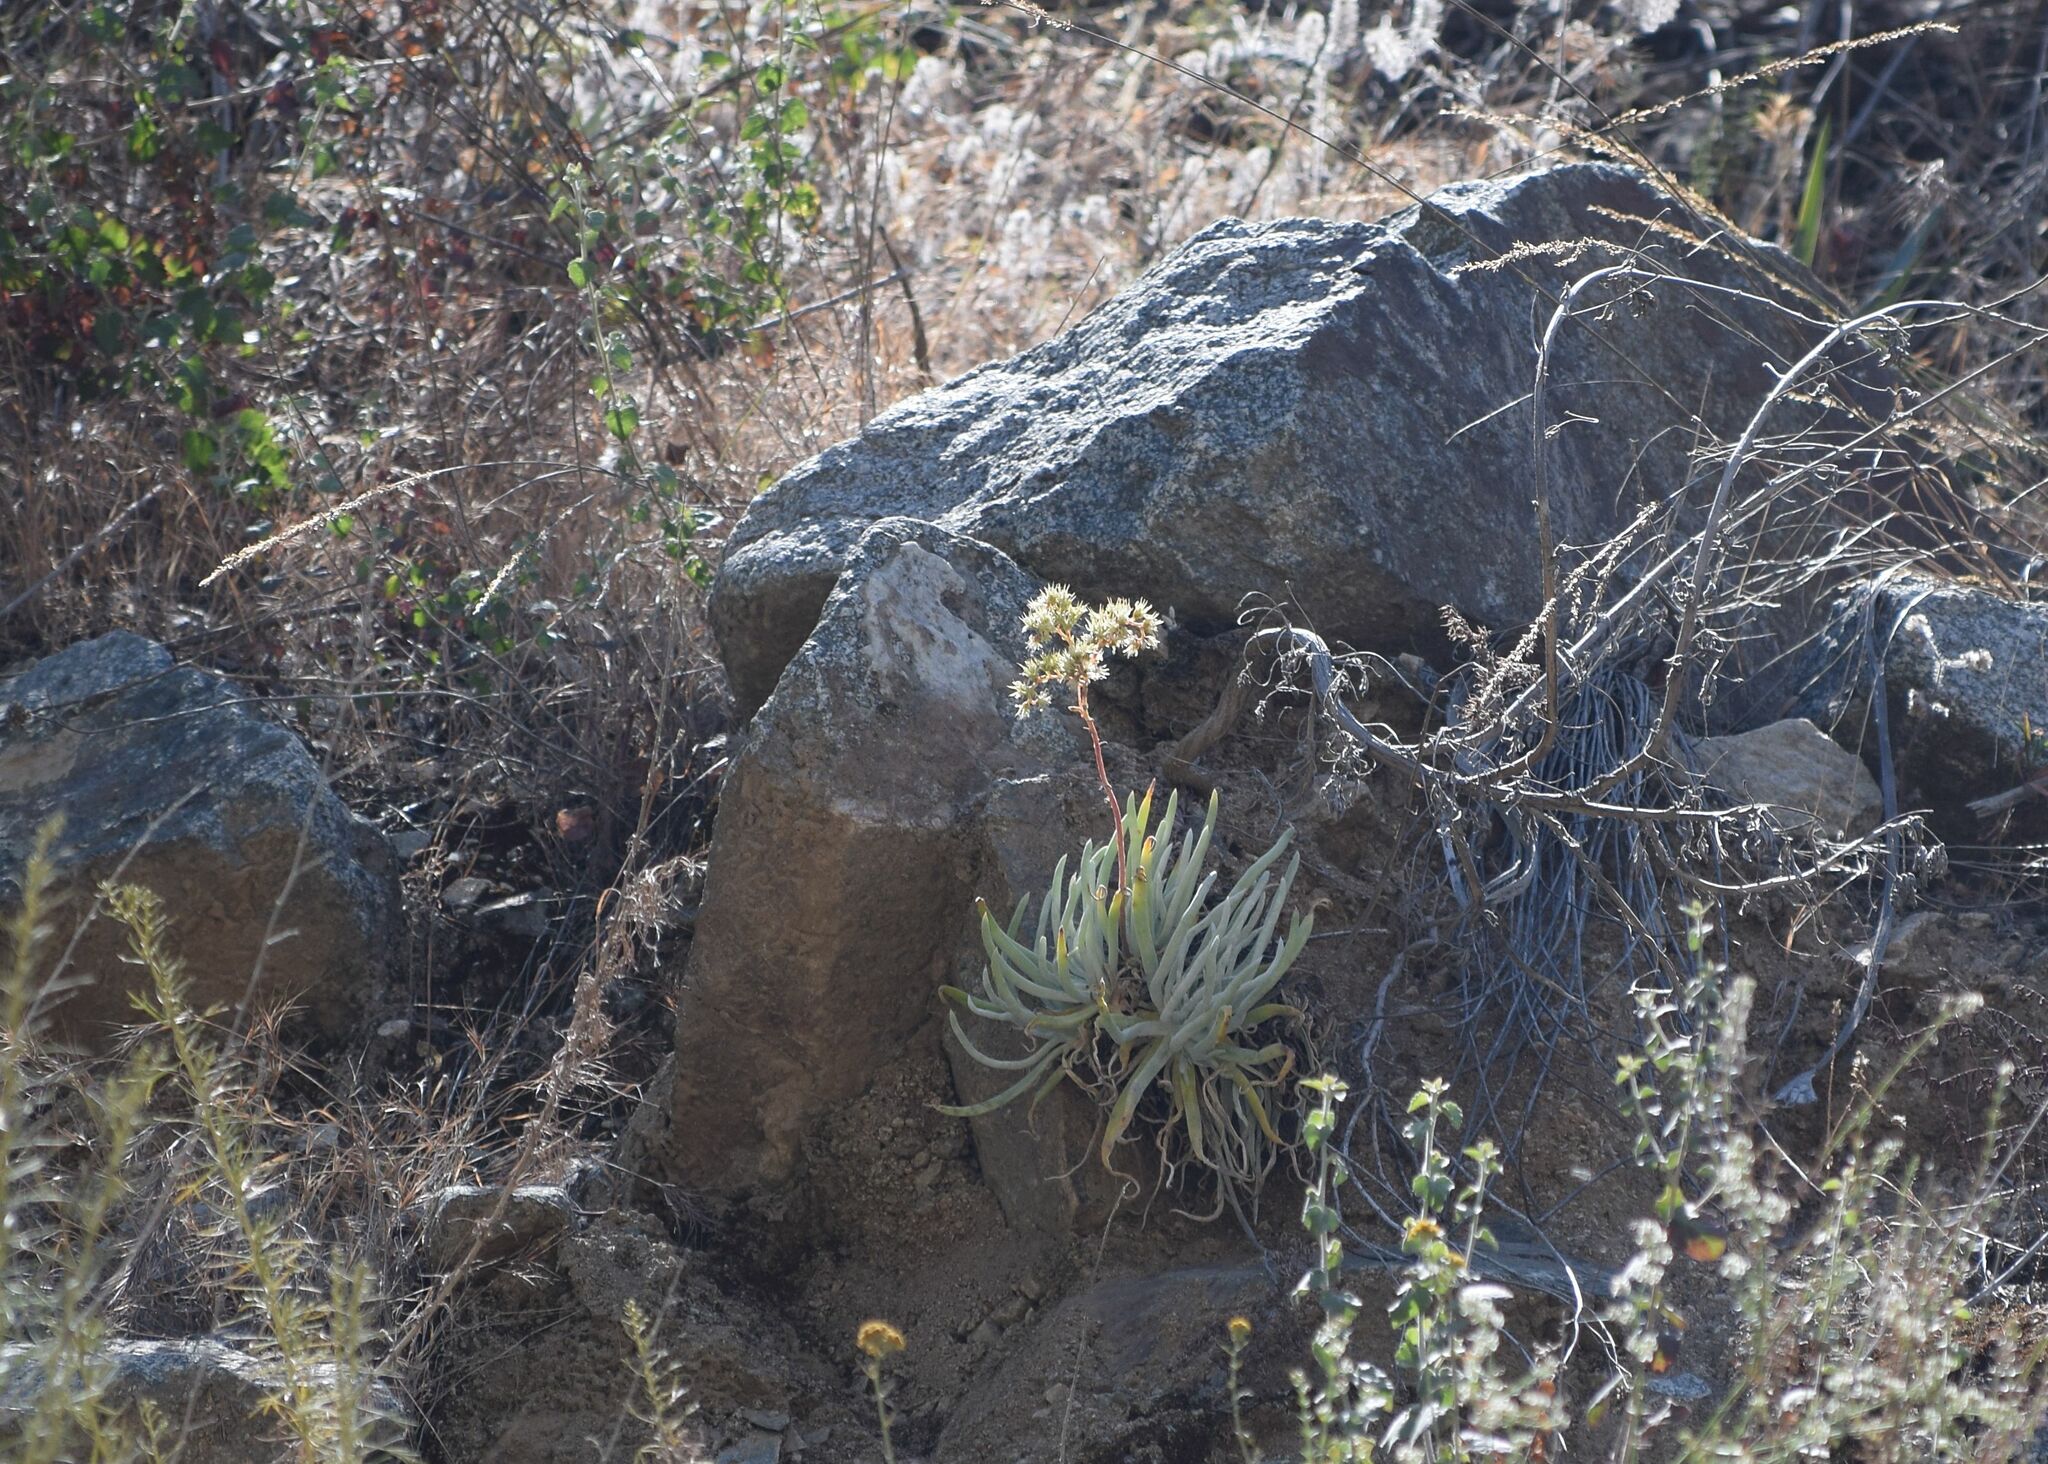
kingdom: Plantae
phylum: Tracheophyta
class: Magnoliopsida
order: Saxifragales
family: Crassulaceae
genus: Dudleya
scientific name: Dudleya densiflora
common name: San gabriel mountains dudleya
